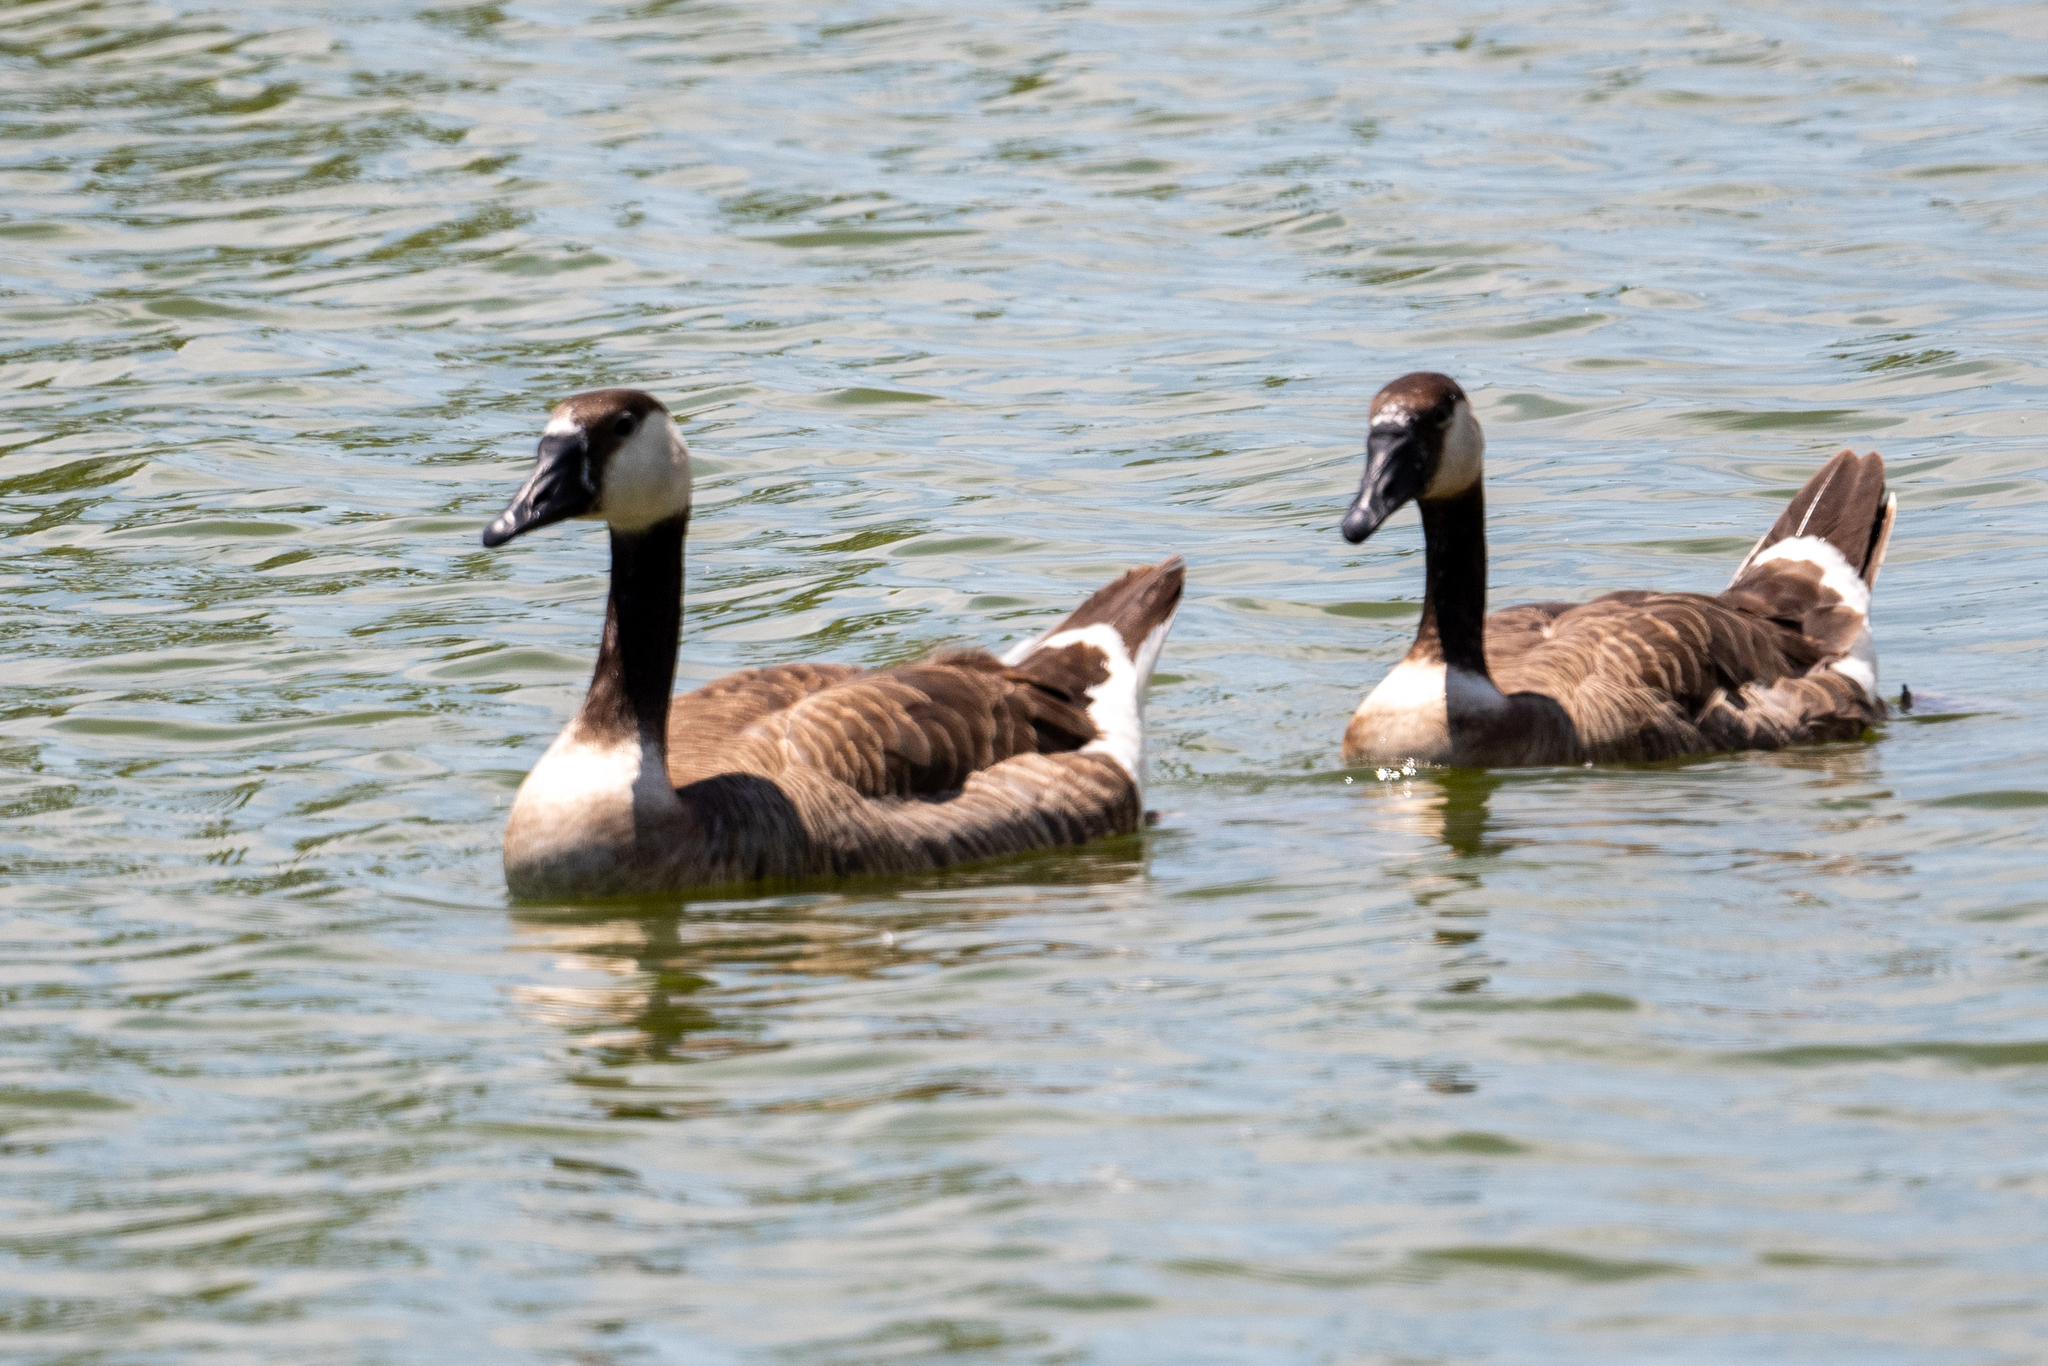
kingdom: Animalia
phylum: Chordata
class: Aves
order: Anseriformes
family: Anatidae
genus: Branta
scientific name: Branta canadensis
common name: Canada goose
